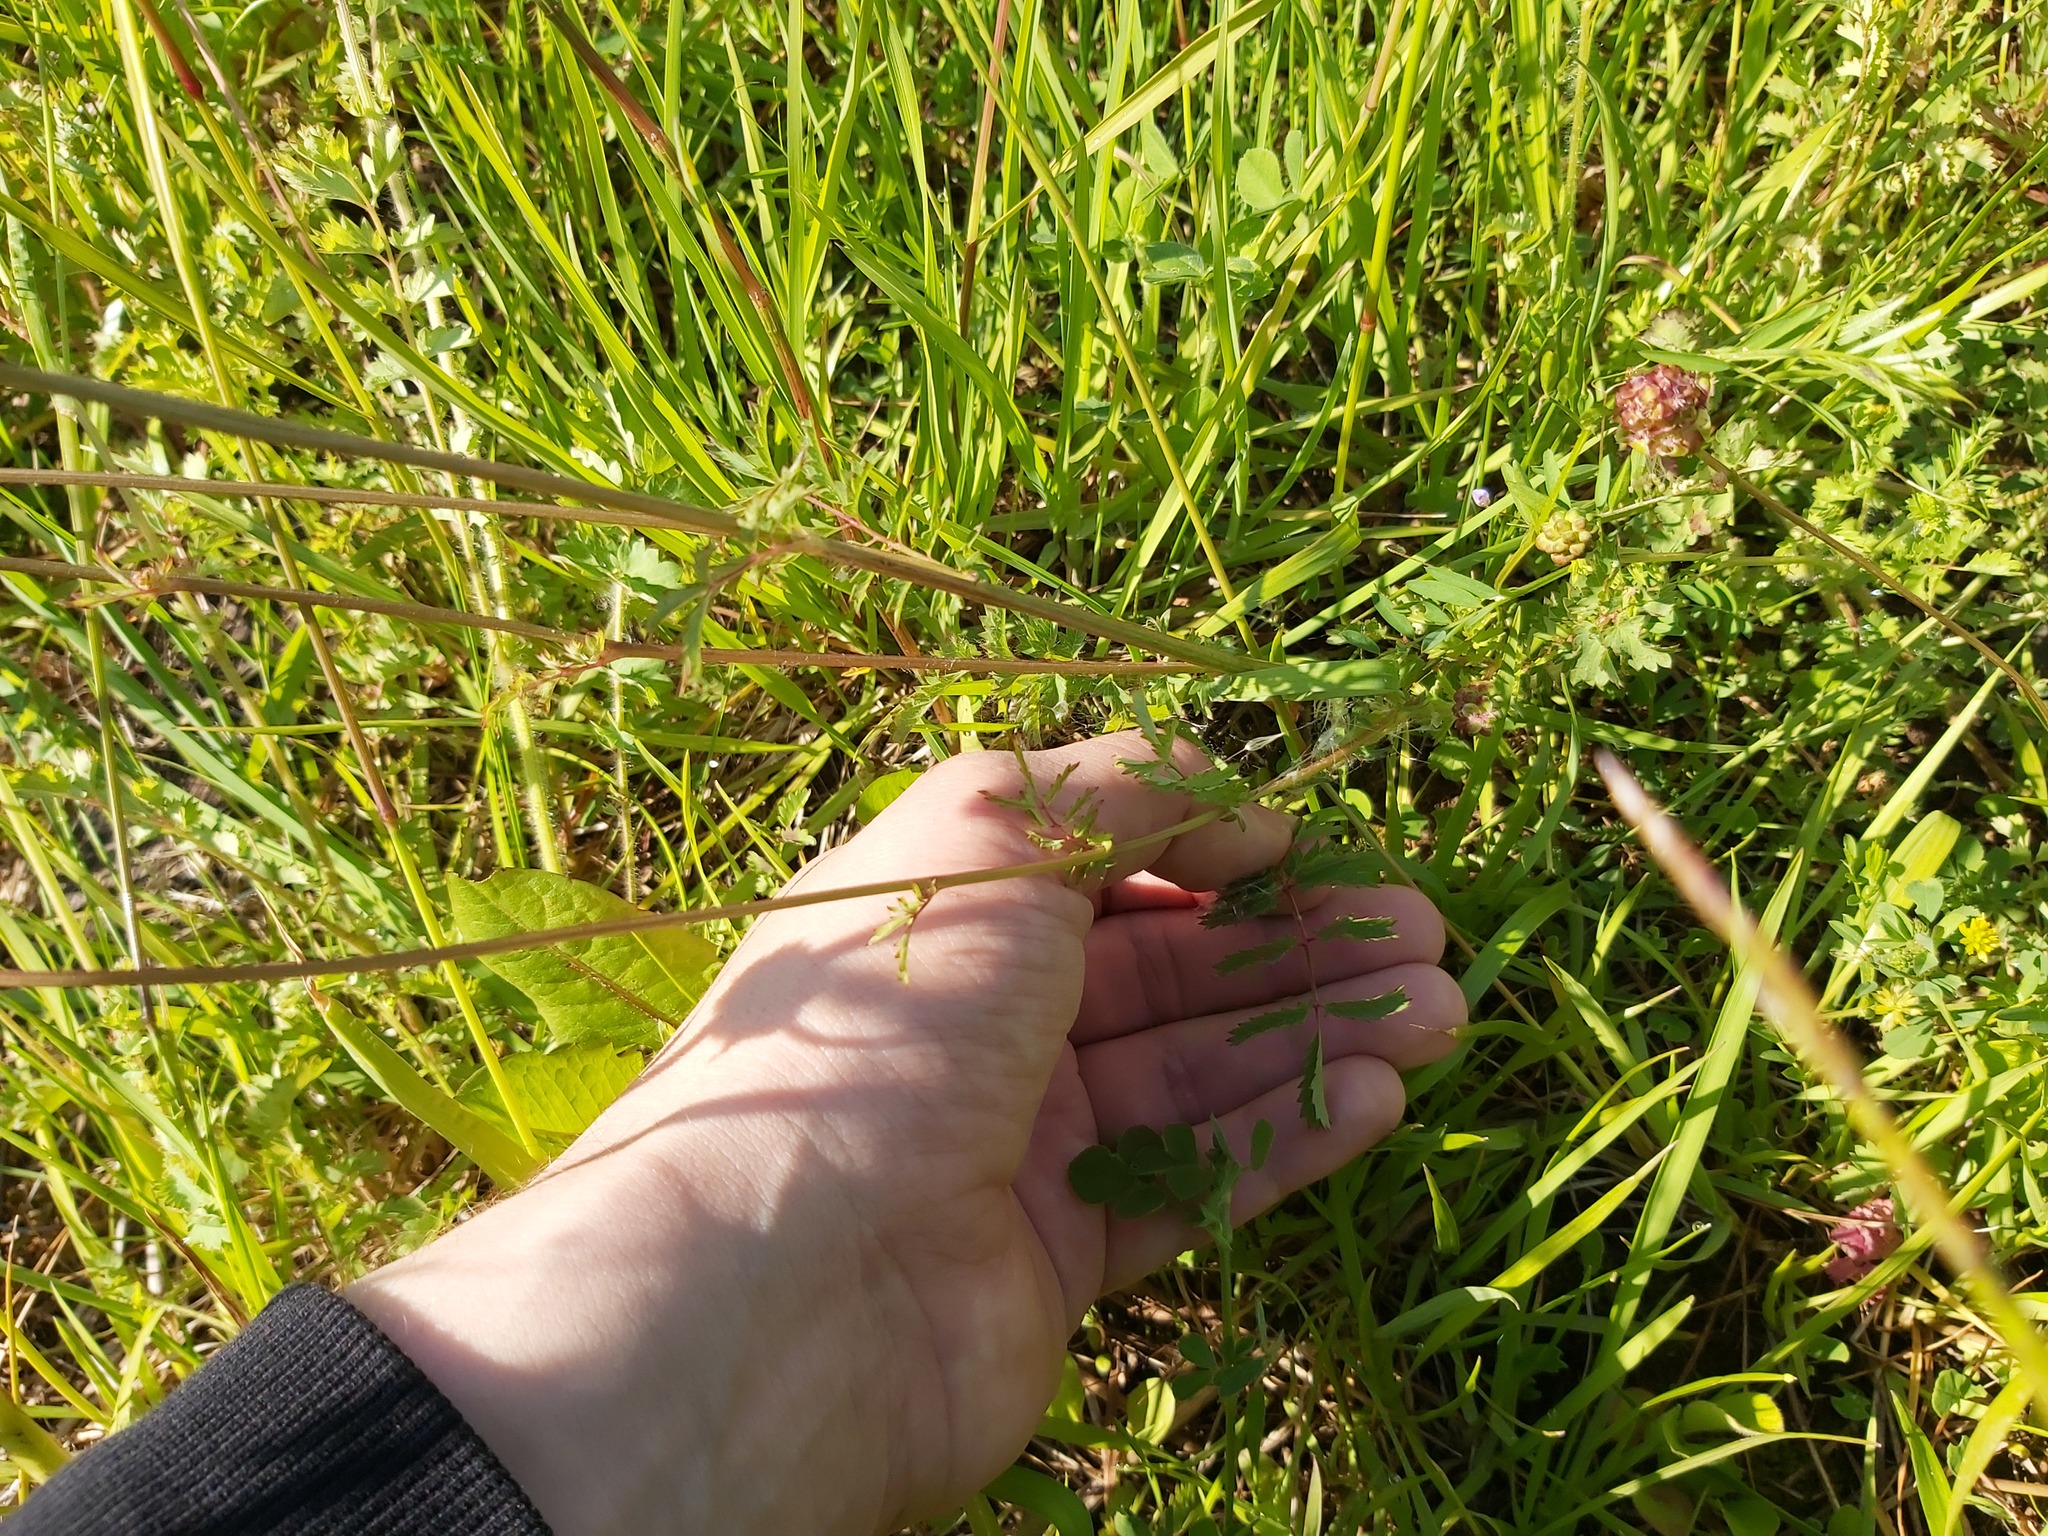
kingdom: Plantae
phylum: Tracheophyta
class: Magnoliopsida
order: Rosales
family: Rosaceae
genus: Poterium
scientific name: Poterium sanguisorba
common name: Salad burnet
